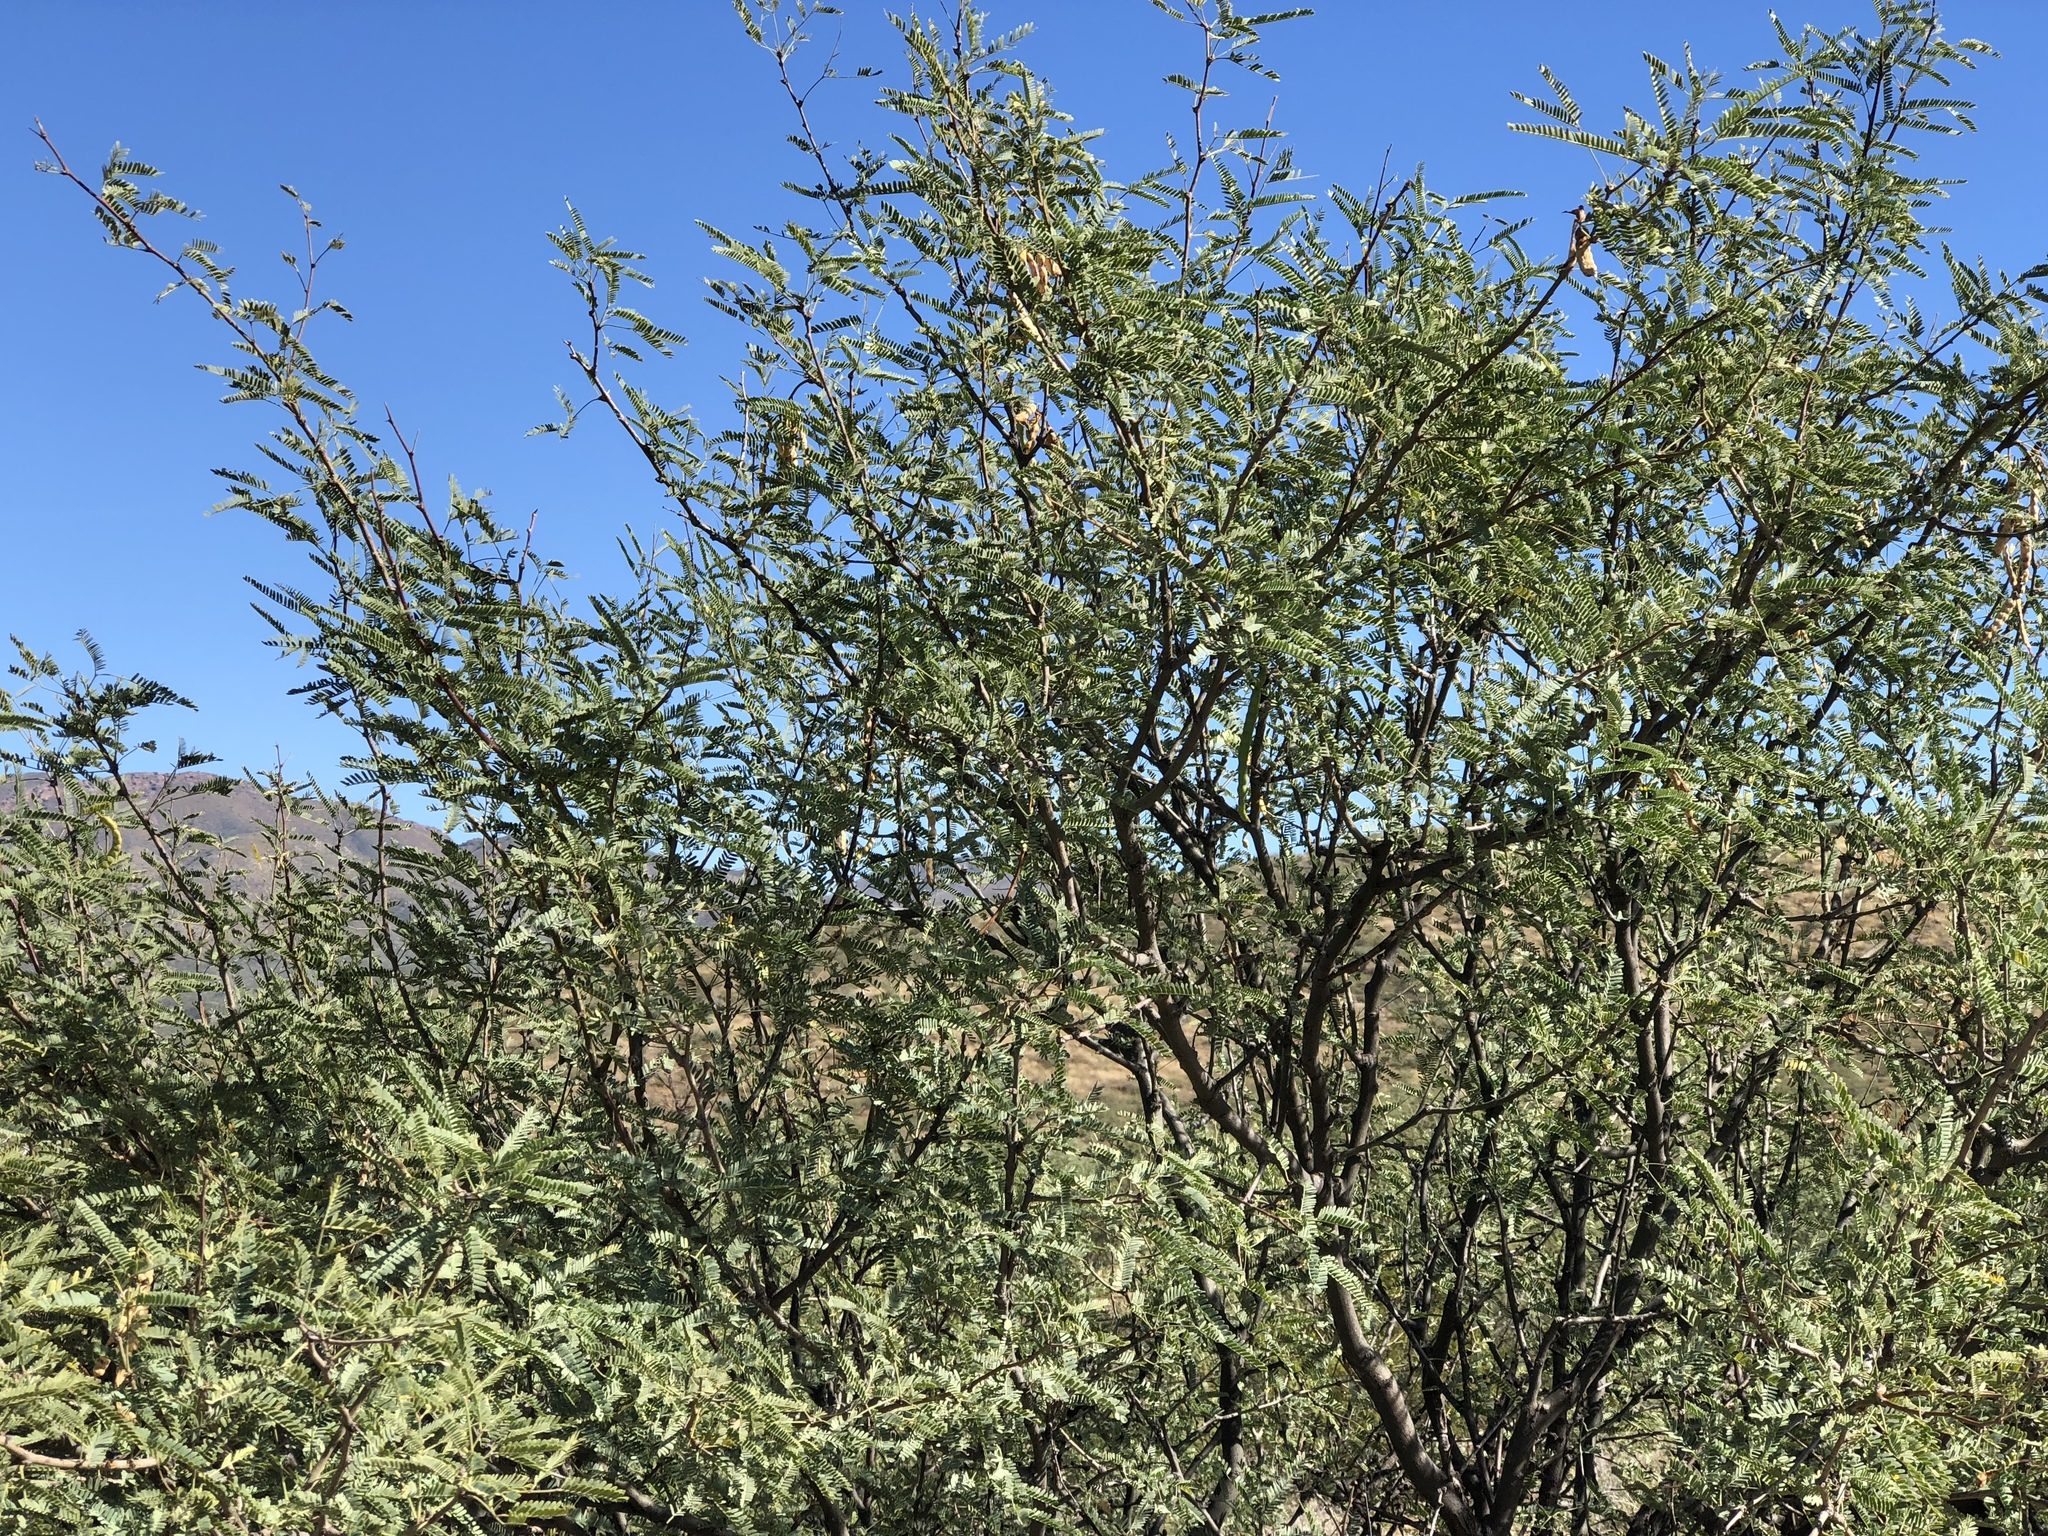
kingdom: Plantae
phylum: Tracheophyta
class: Magnoliopsida
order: Fabales
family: Fabaceae
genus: Prosopis
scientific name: Prosopis velutina
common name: Velvet mesquite
